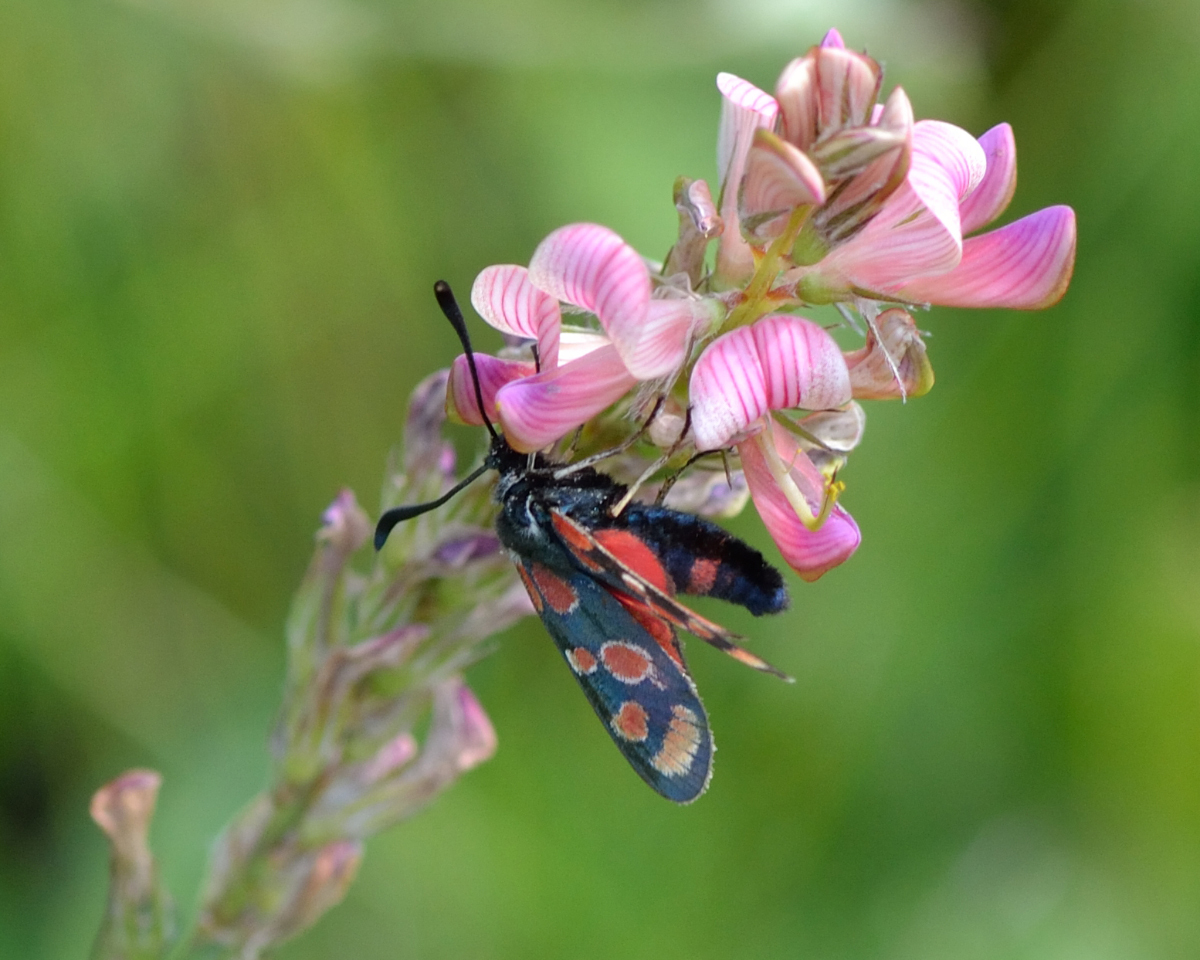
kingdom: Animalia
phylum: Arthropoda
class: Insecta
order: Lepidoptera
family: Zygaenidae
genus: Zygaena
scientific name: Zygaena carniolica
